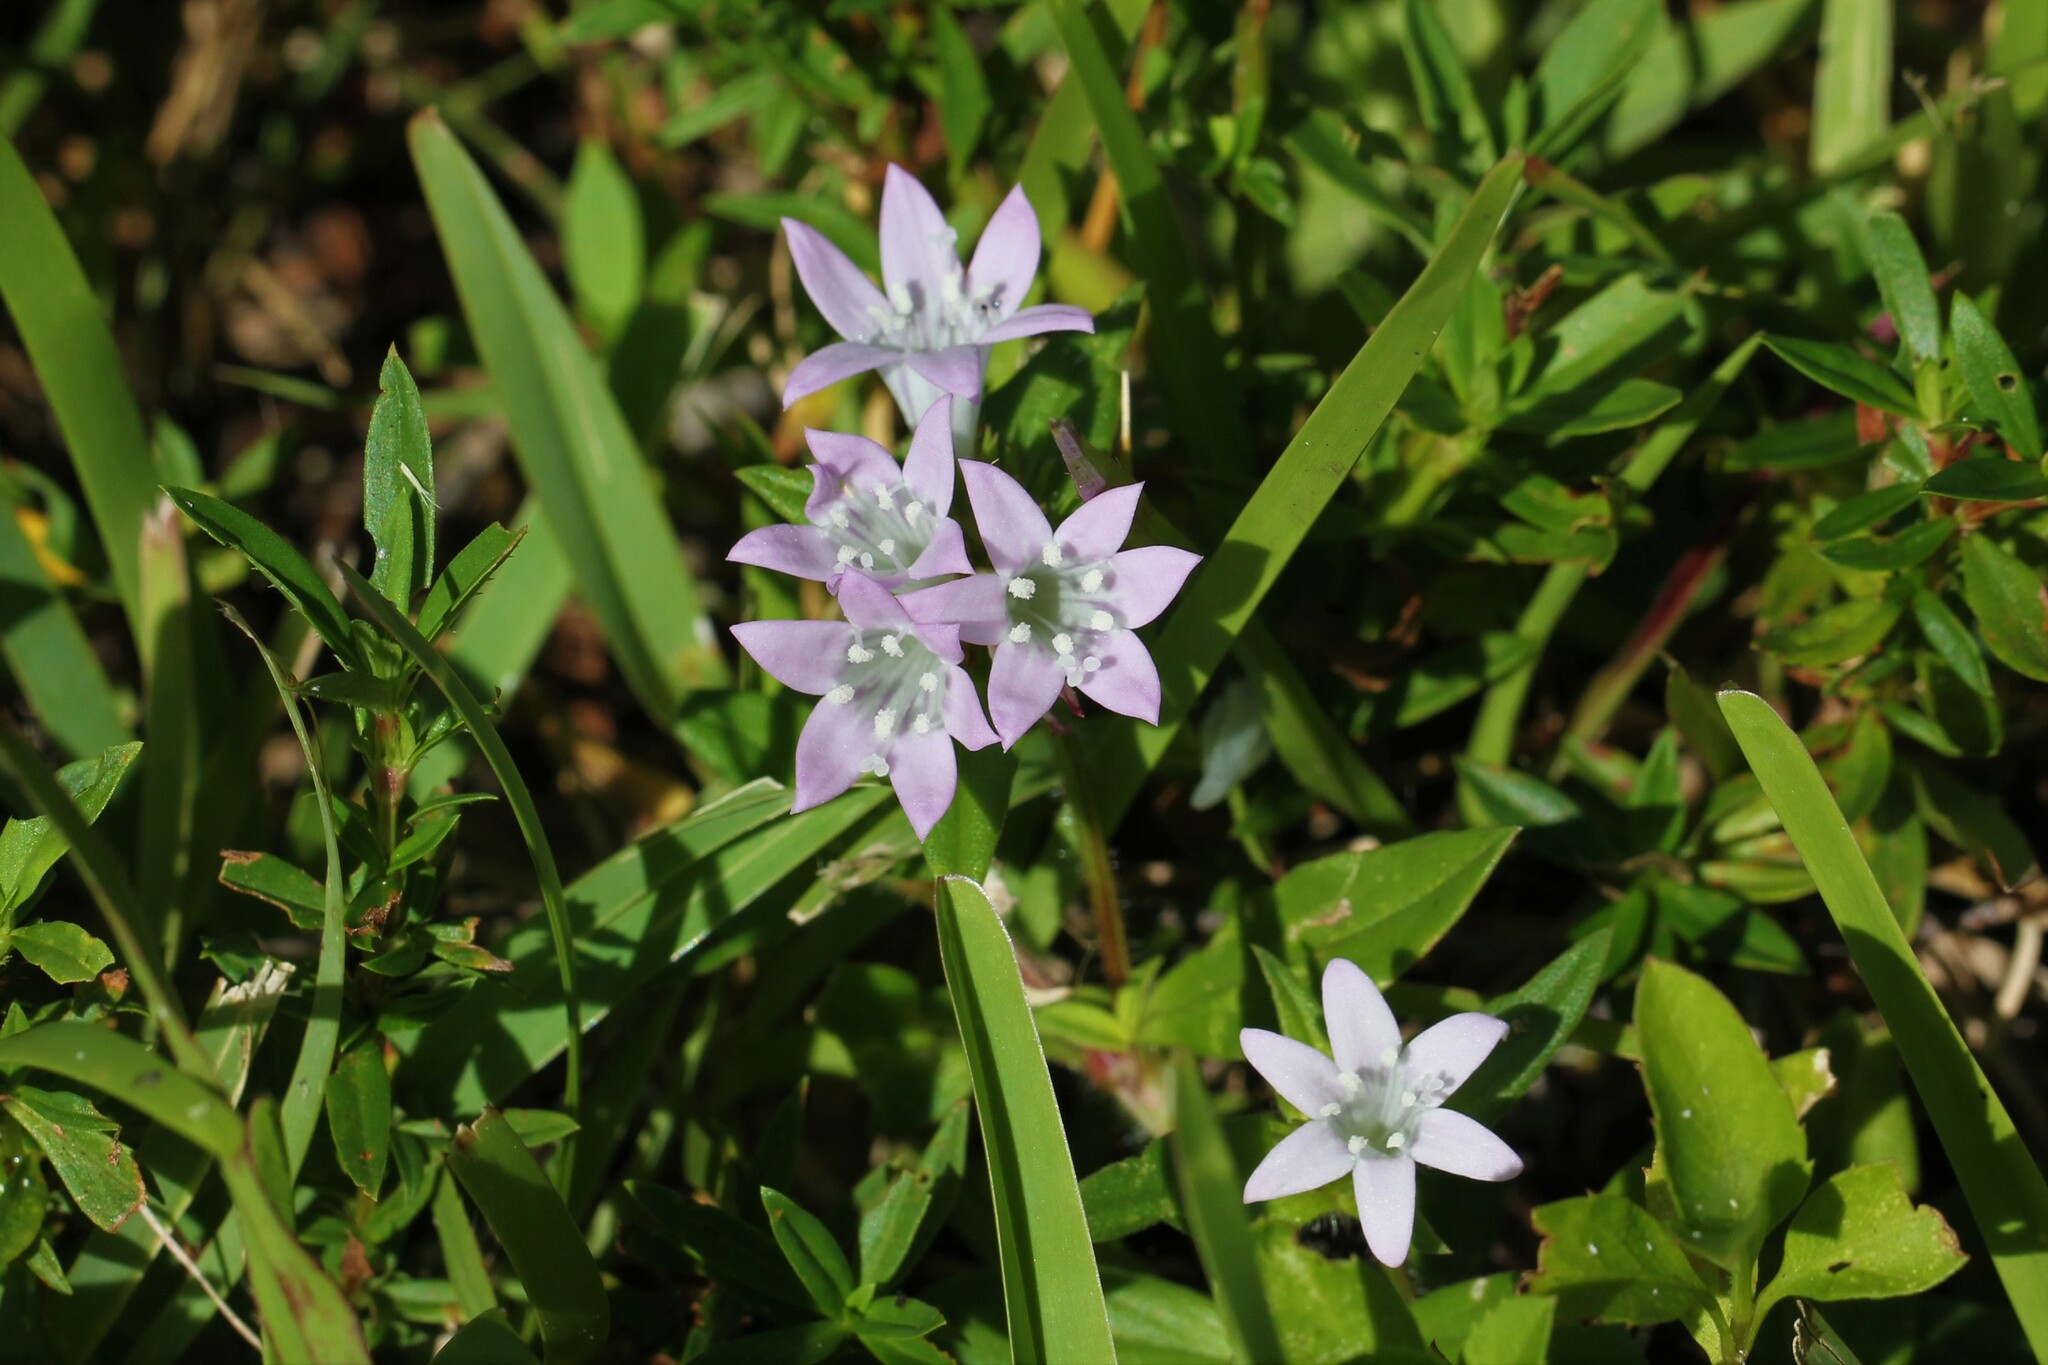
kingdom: Plantae
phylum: Tracheophyta
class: Magnoliopsida
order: Gentianales
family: Rubiaceae
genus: Richardia
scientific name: Richardia grandiflora
